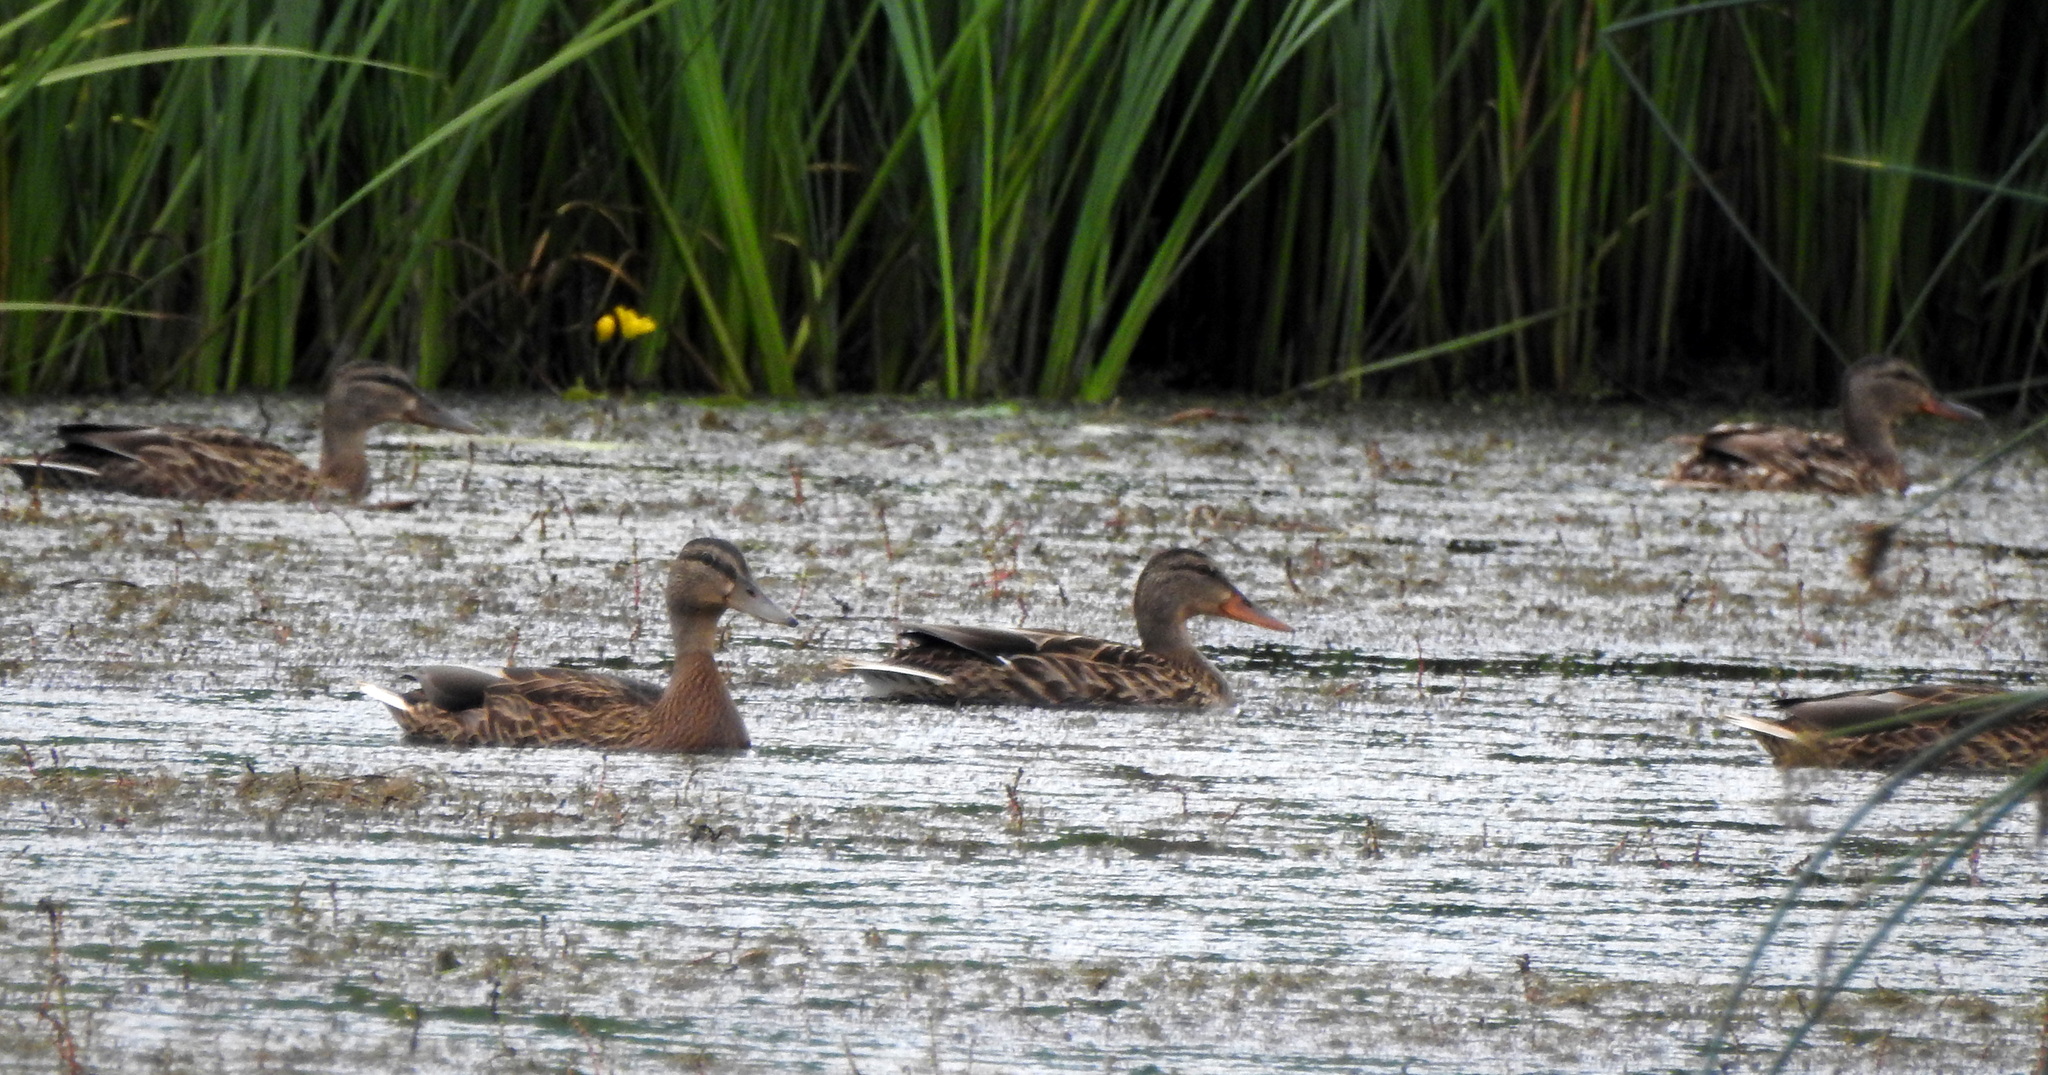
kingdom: Animalia
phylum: Chordata
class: Aves
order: Anseriformes
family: Anatidae
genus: Anas
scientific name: Anas platyrhynchos
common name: Mallard
